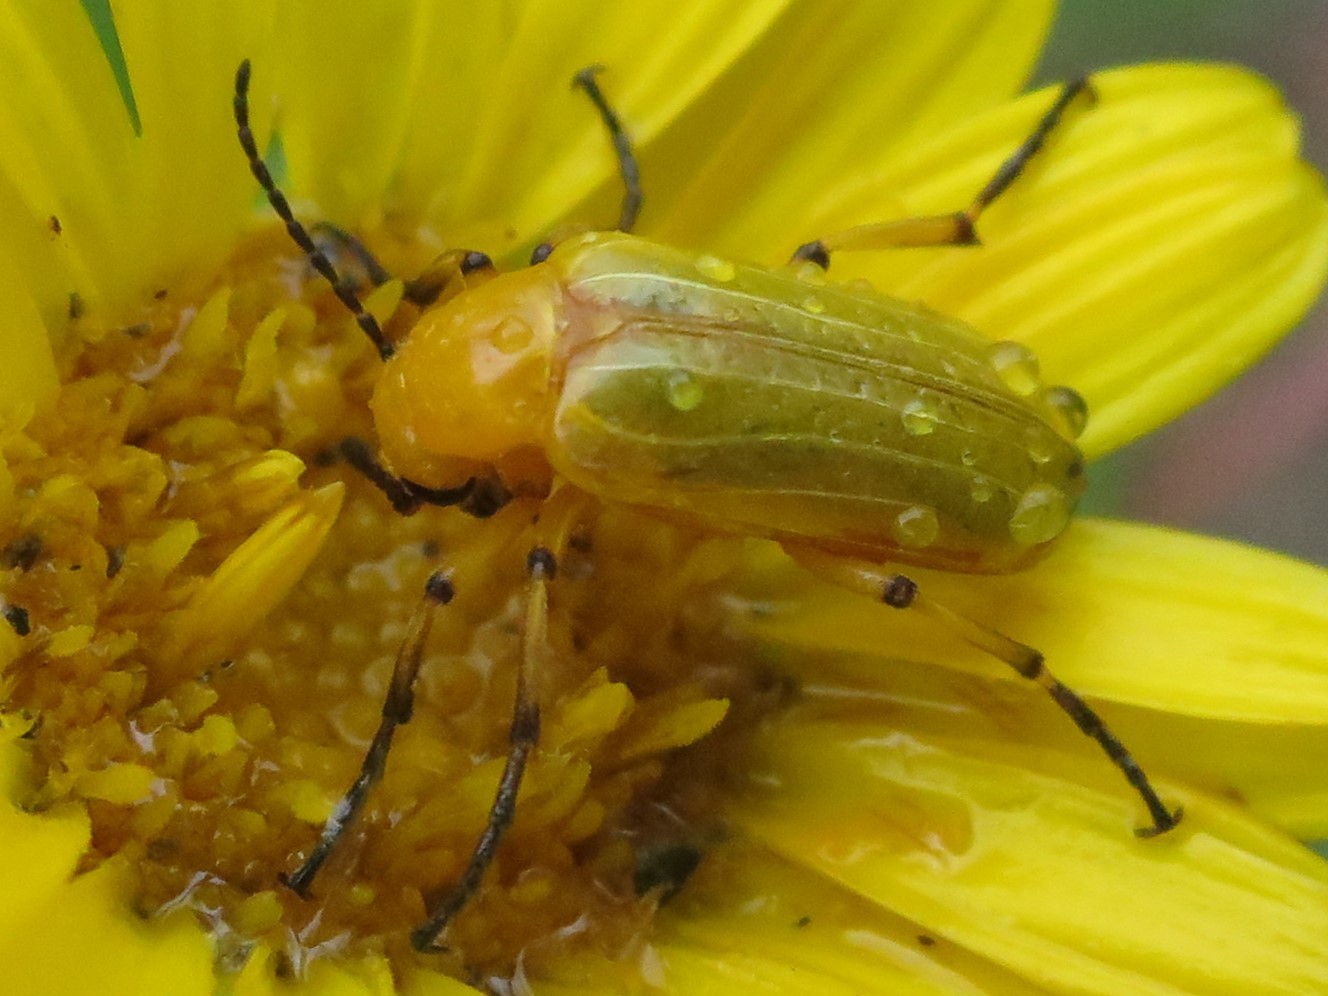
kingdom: Animalia
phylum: Arthropoda
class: Insecta
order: Coleoptera
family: Meloidae
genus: Zonitis
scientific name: Zonitis sayi
